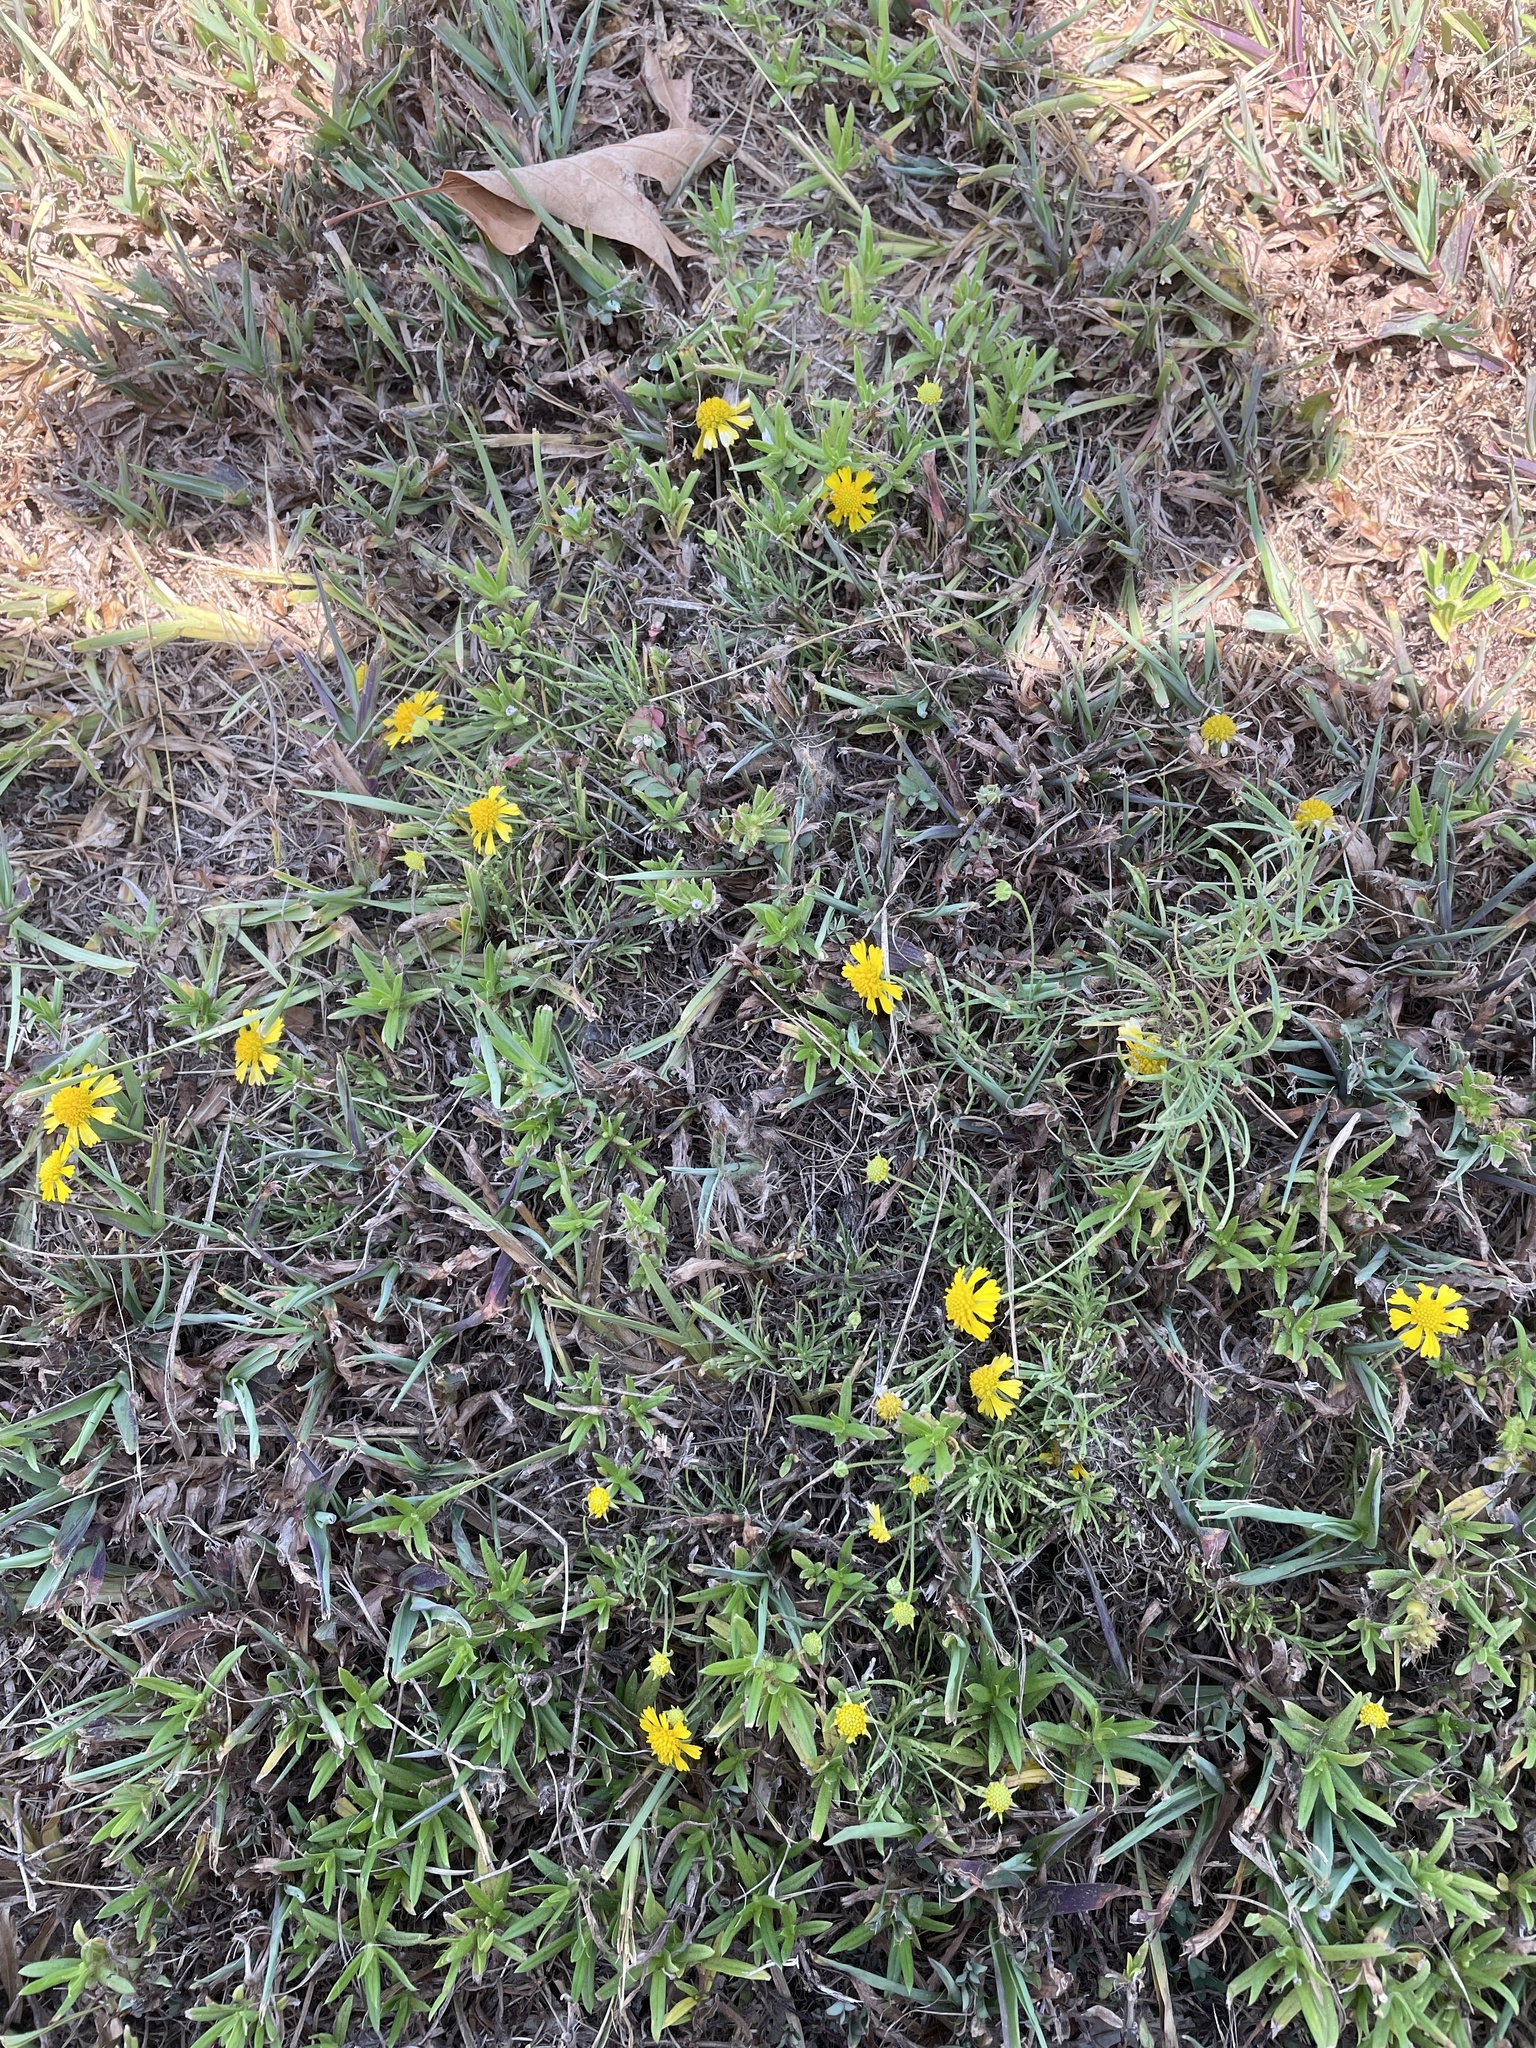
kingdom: Plantae
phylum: Tracheophyta
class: Magnoliopsida
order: Asterales
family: Asteraceae
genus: Helenium
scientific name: Helenium amarum
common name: Bitter sneezeweed
